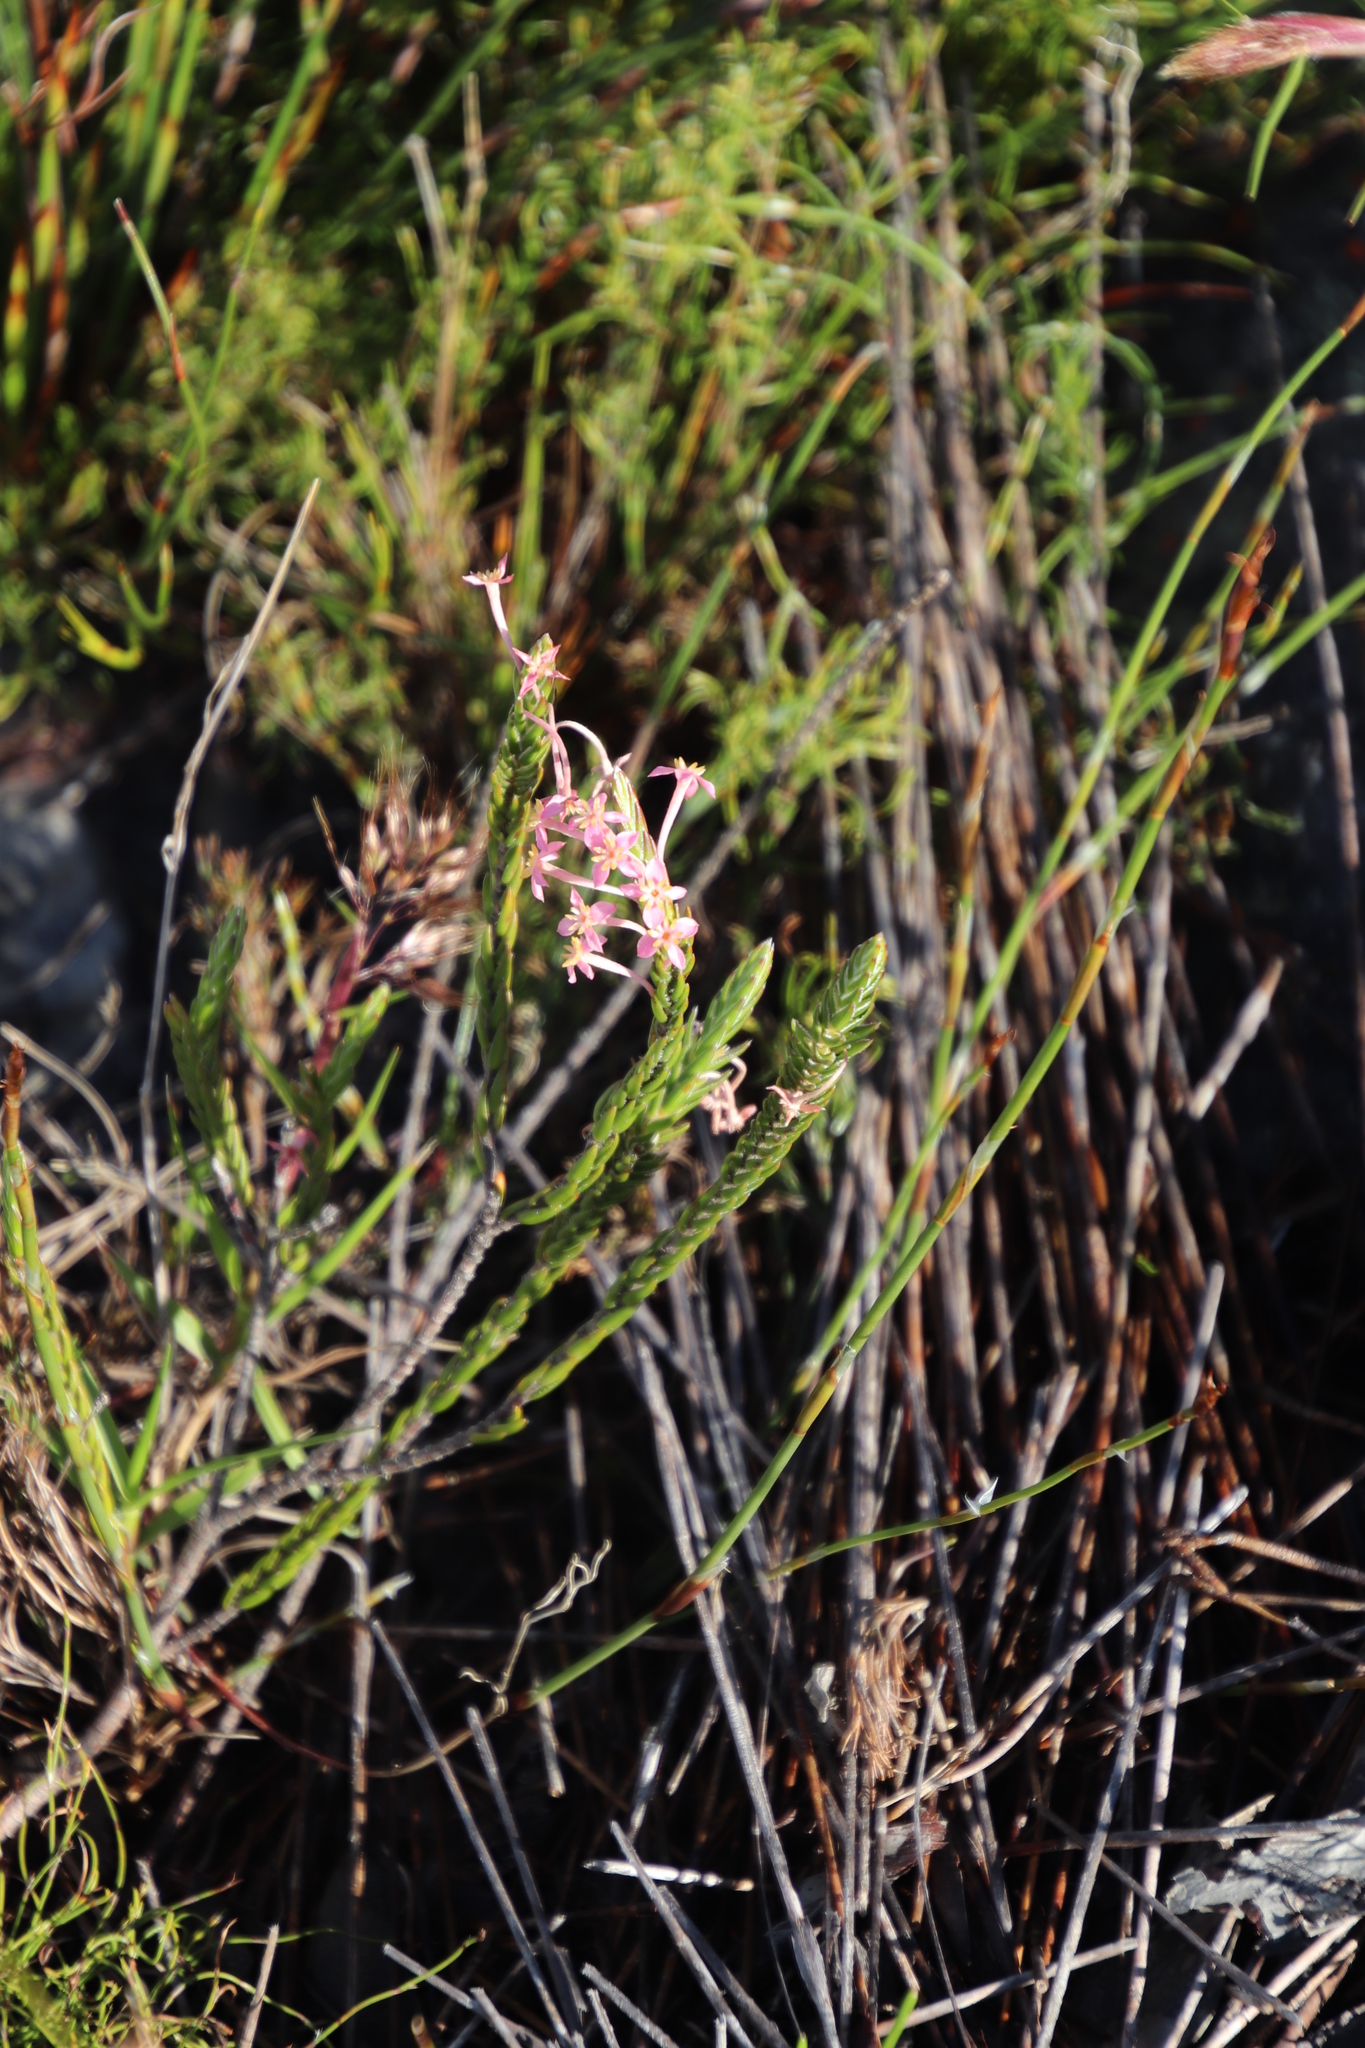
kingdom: Plantae
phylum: Tracheophyta
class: Magnoliopsida
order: Malvales
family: Thymelaeaceae
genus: Struthiola
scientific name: Struthiola ciliata
